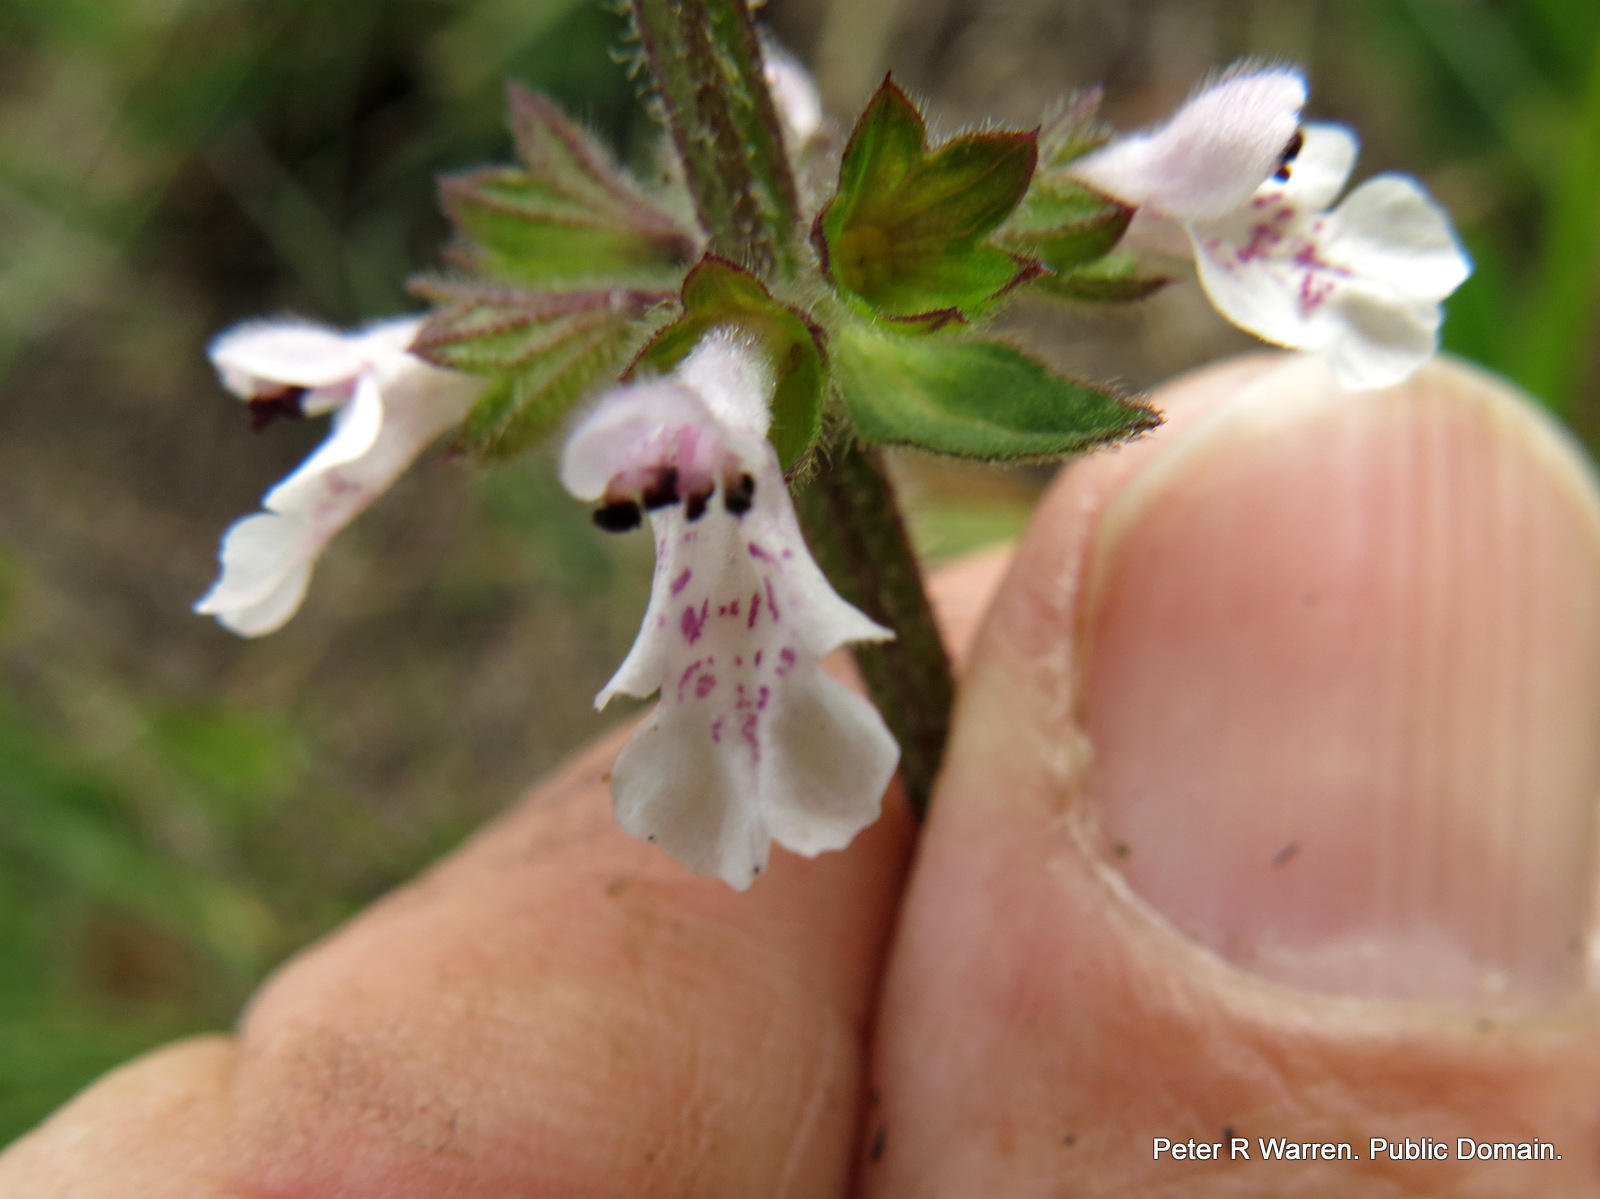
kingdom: Plantae
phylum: Tracheophyta
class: Magnoliopsida
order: Lamiales
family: Lamiaceae
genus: Stachys
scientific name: Stachys nigricans
